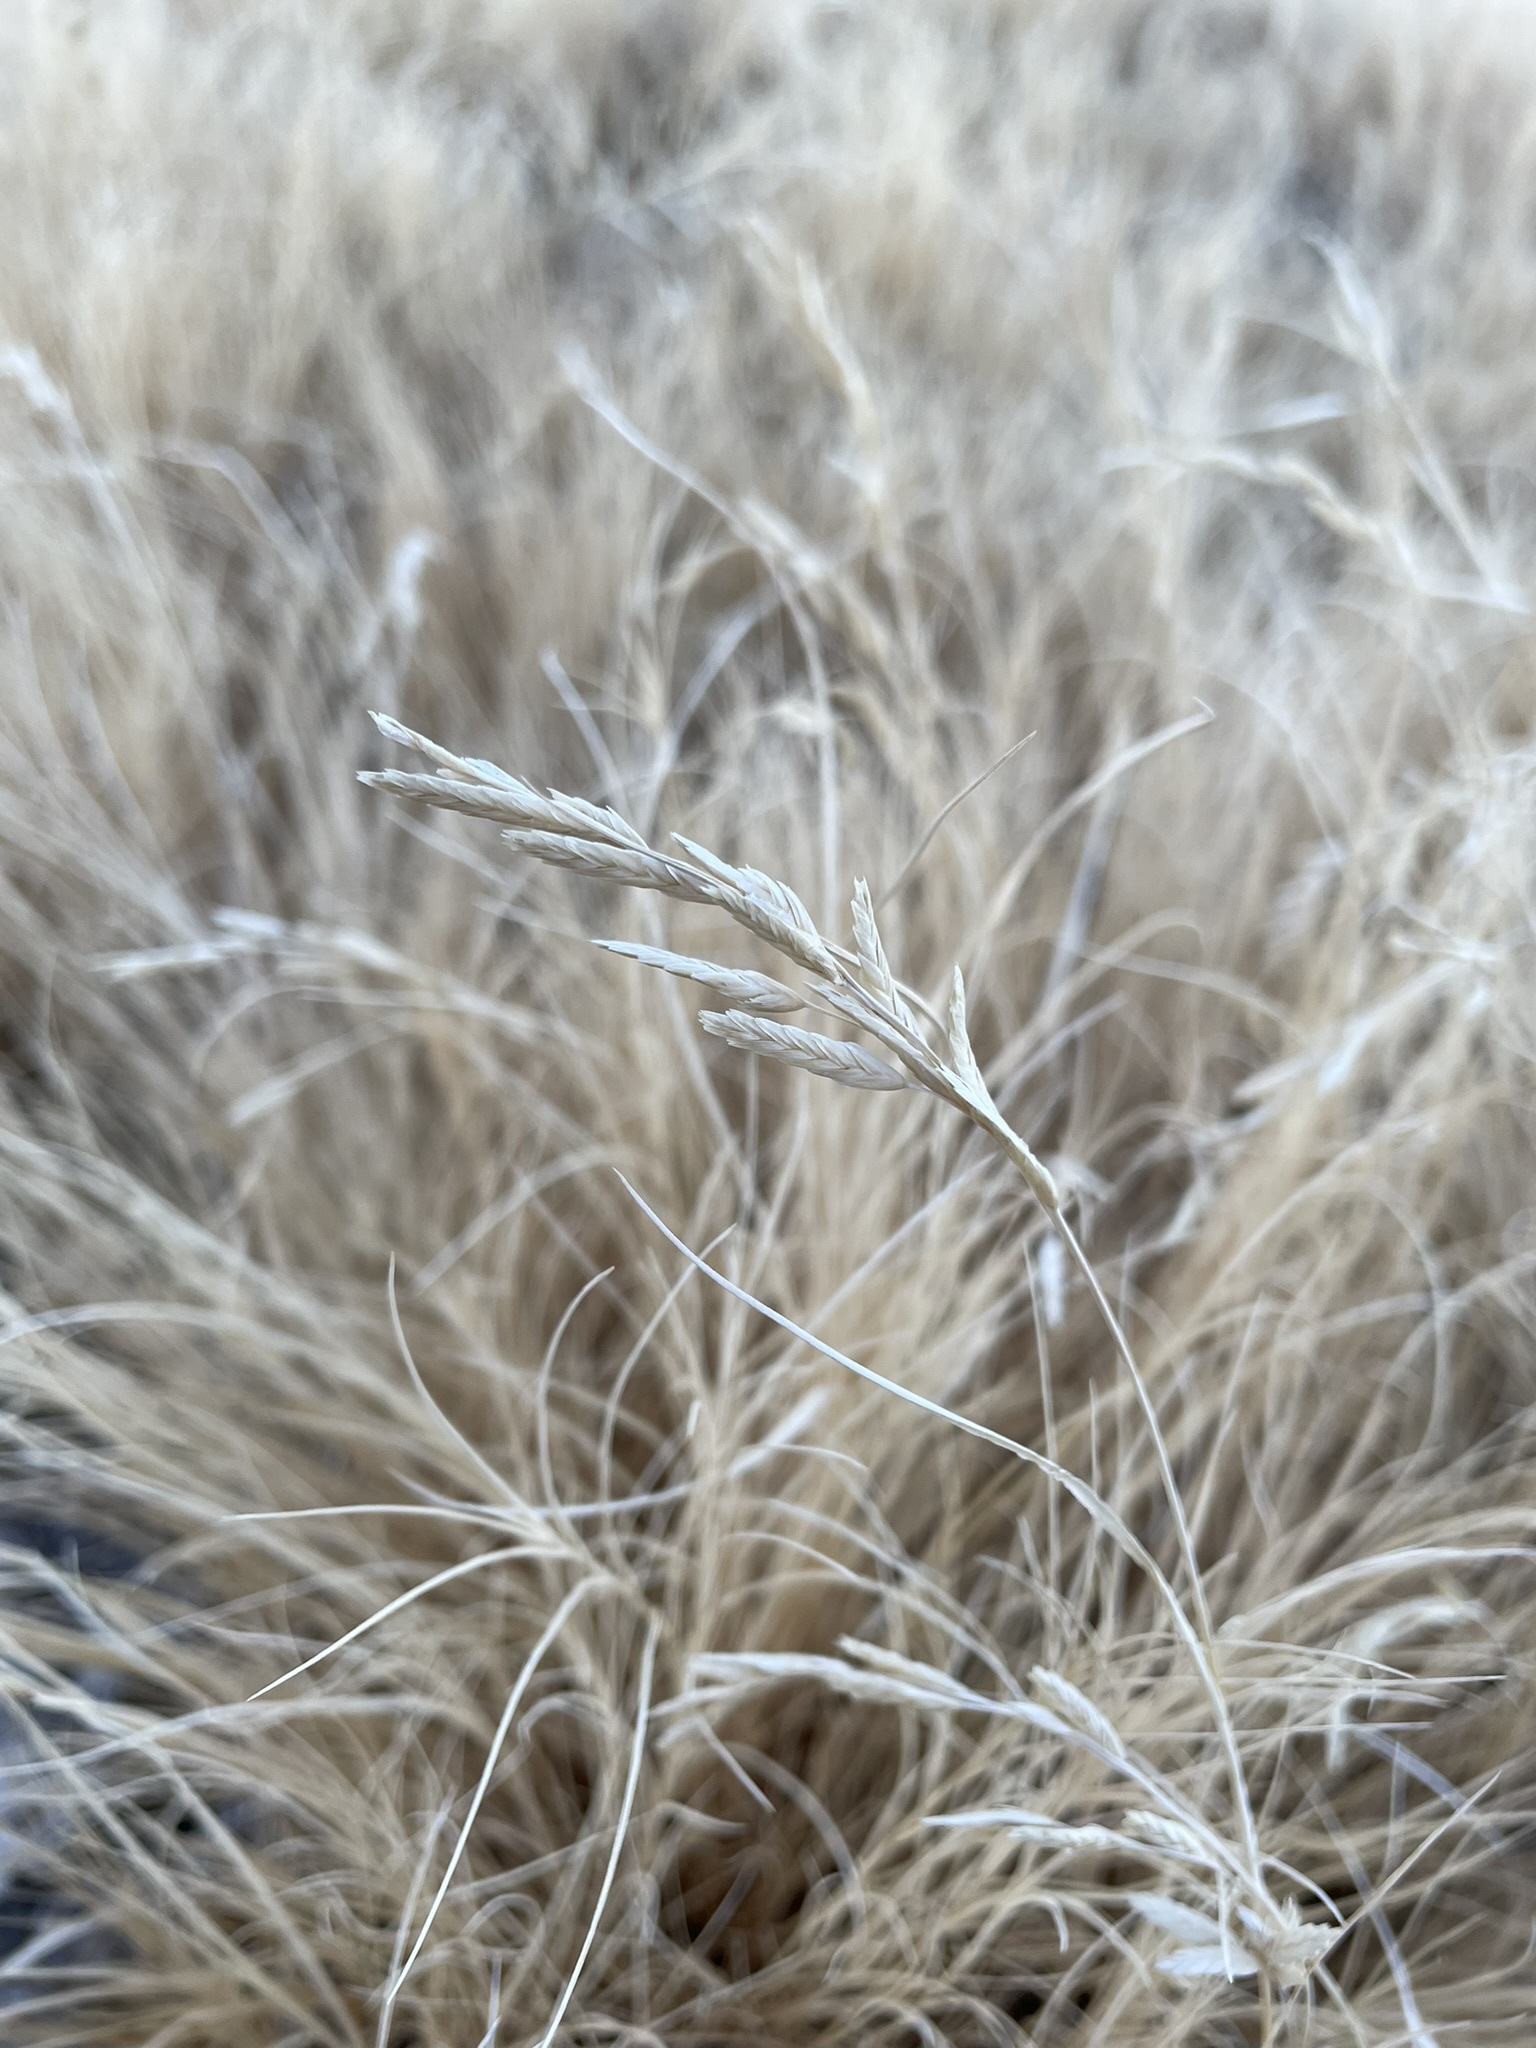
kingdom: Plantae
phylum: Tracheophyta
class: Liliopsida
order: Poales
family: Poaceae
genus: Distichlis
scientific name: Distichlis spicata
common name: Saltgrass
